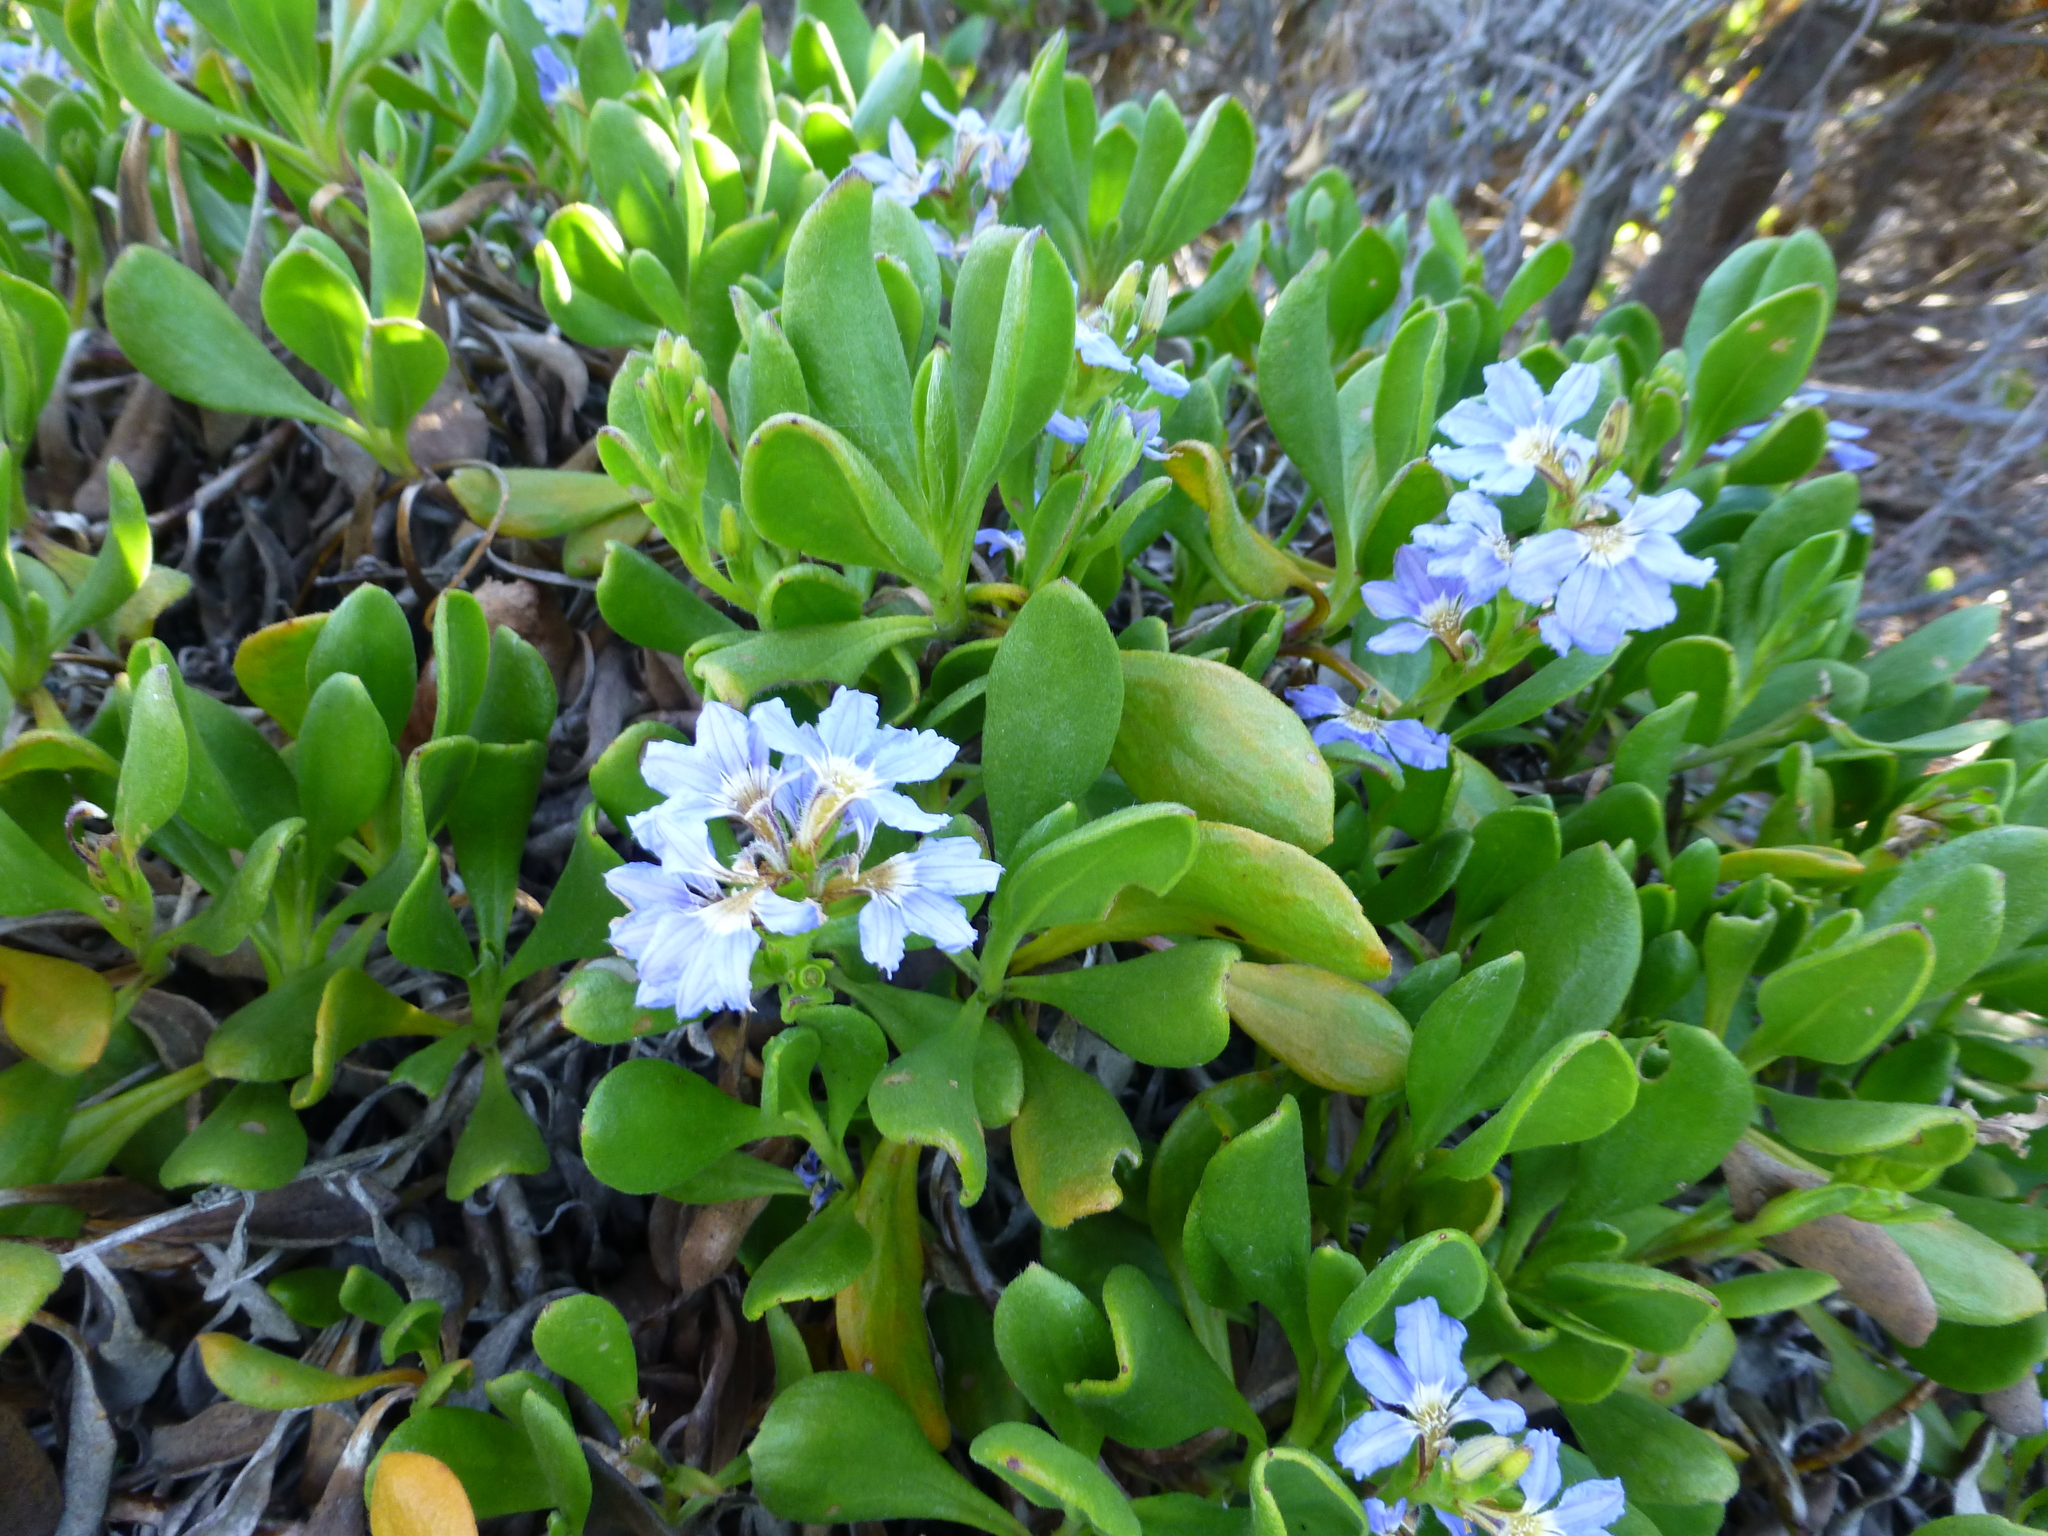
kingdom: Plantae
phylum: Tracheophyta
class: Magnoliopsida
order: Asterales
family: Goodeniaceae
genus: Scaevola
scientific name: Scaevola calendulacea
